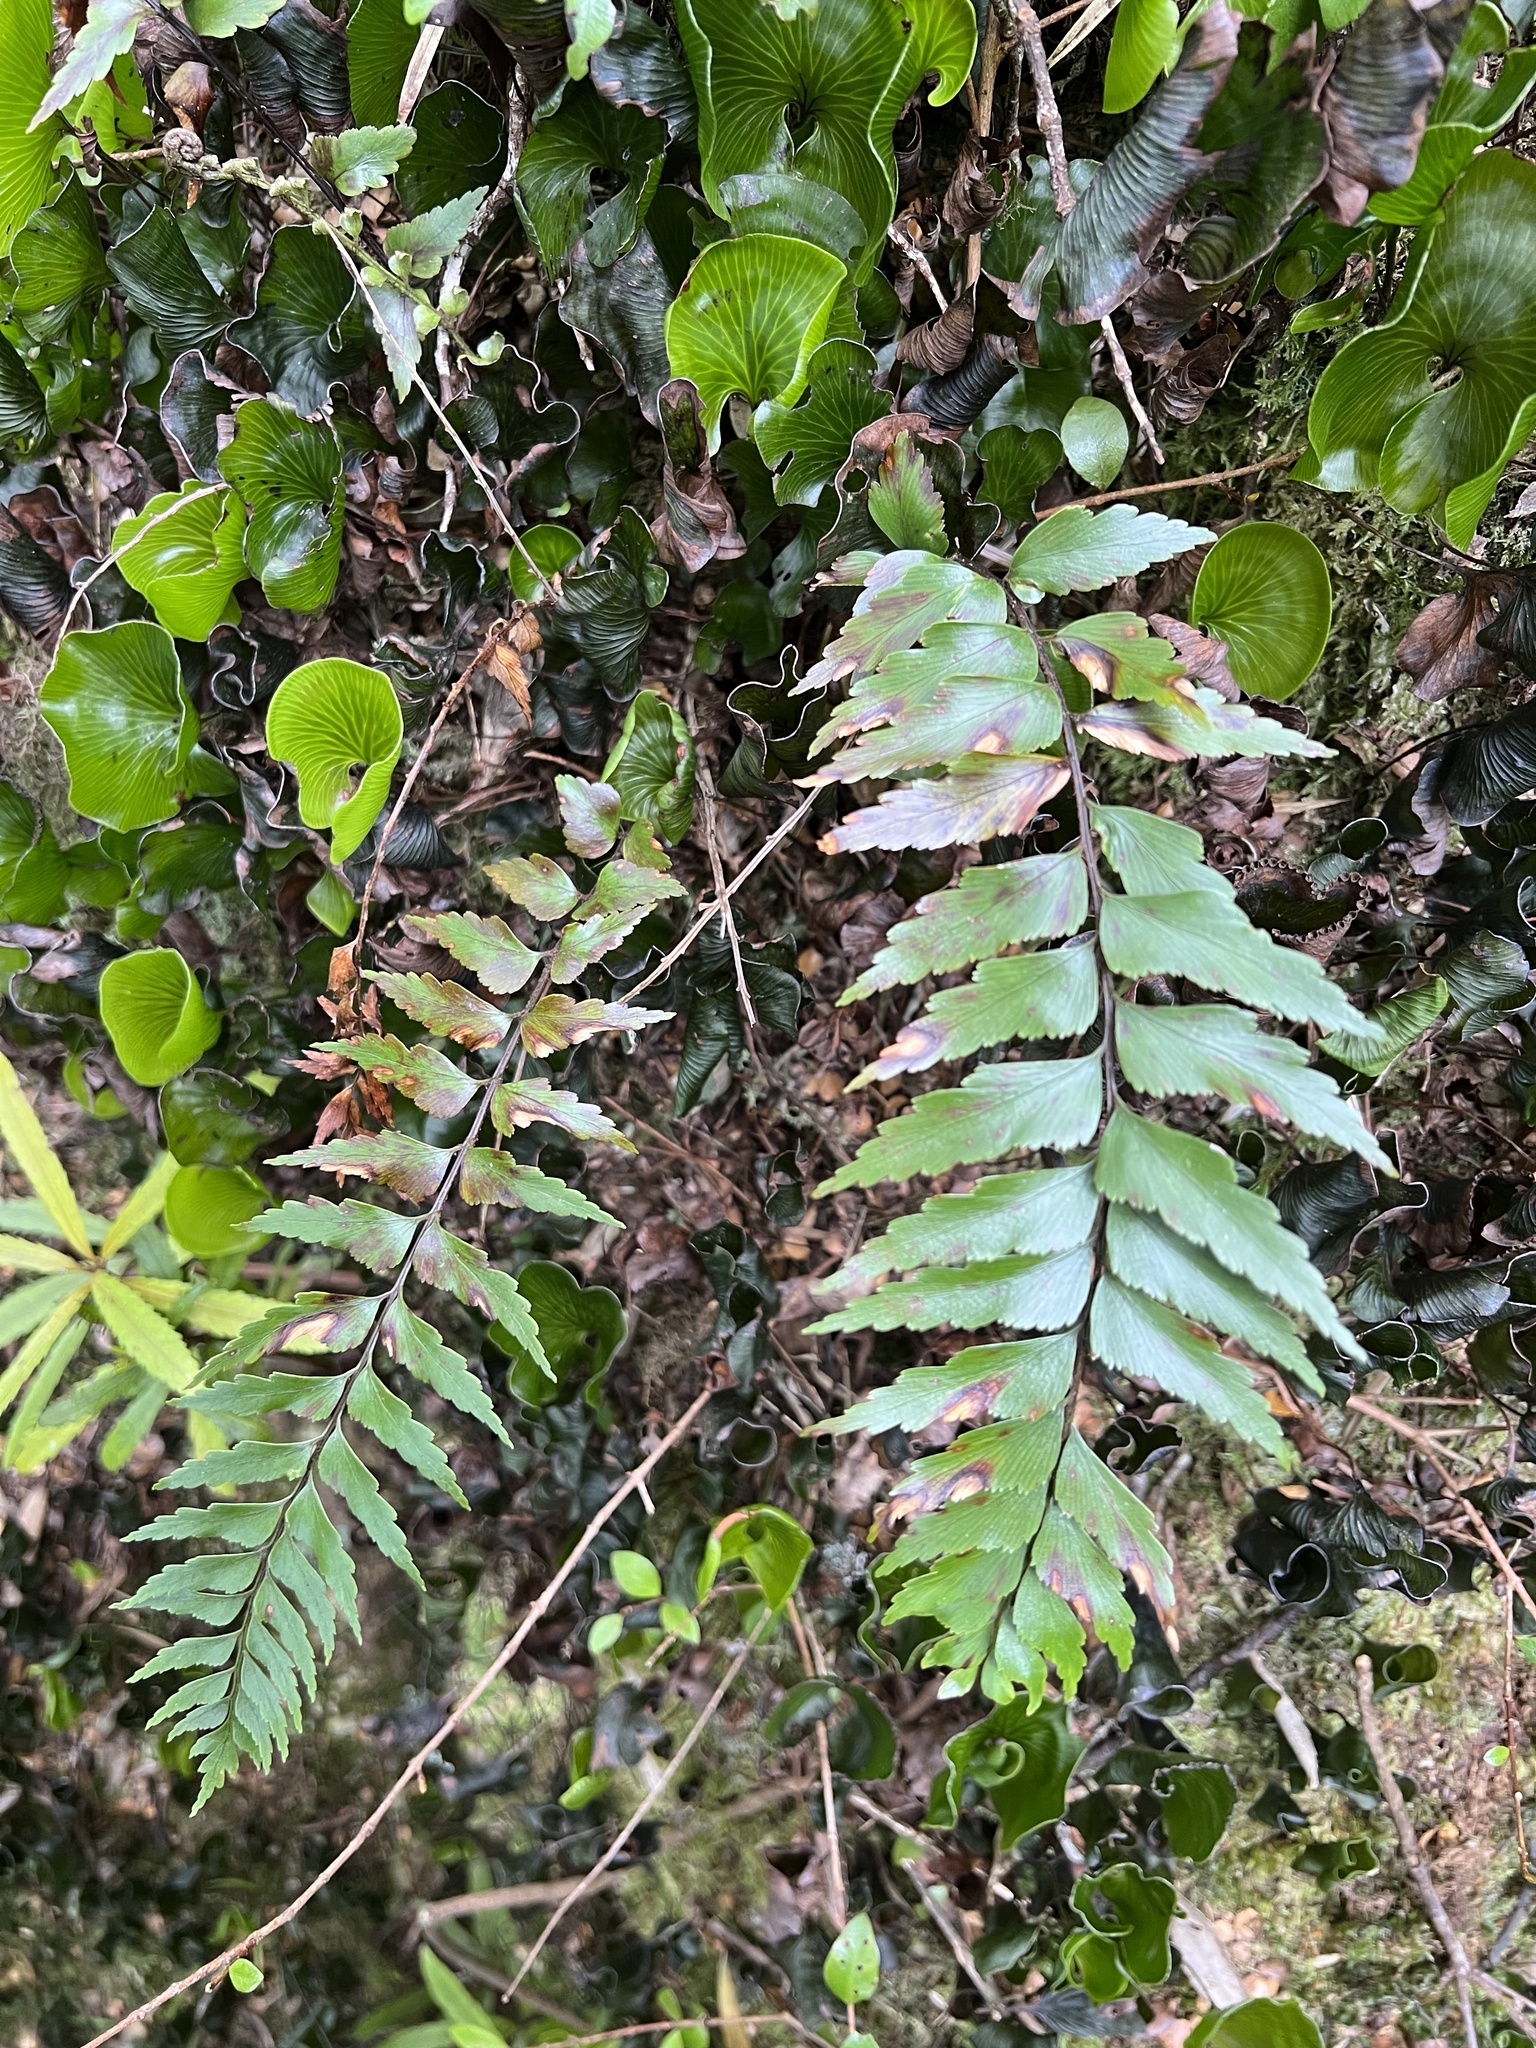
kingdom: Plantae
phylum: Tracheophyta
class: Polypodiopsida
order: Polypodiales
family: Aspleniaceae
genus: Asplenium
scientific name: Asplenium polyodon
